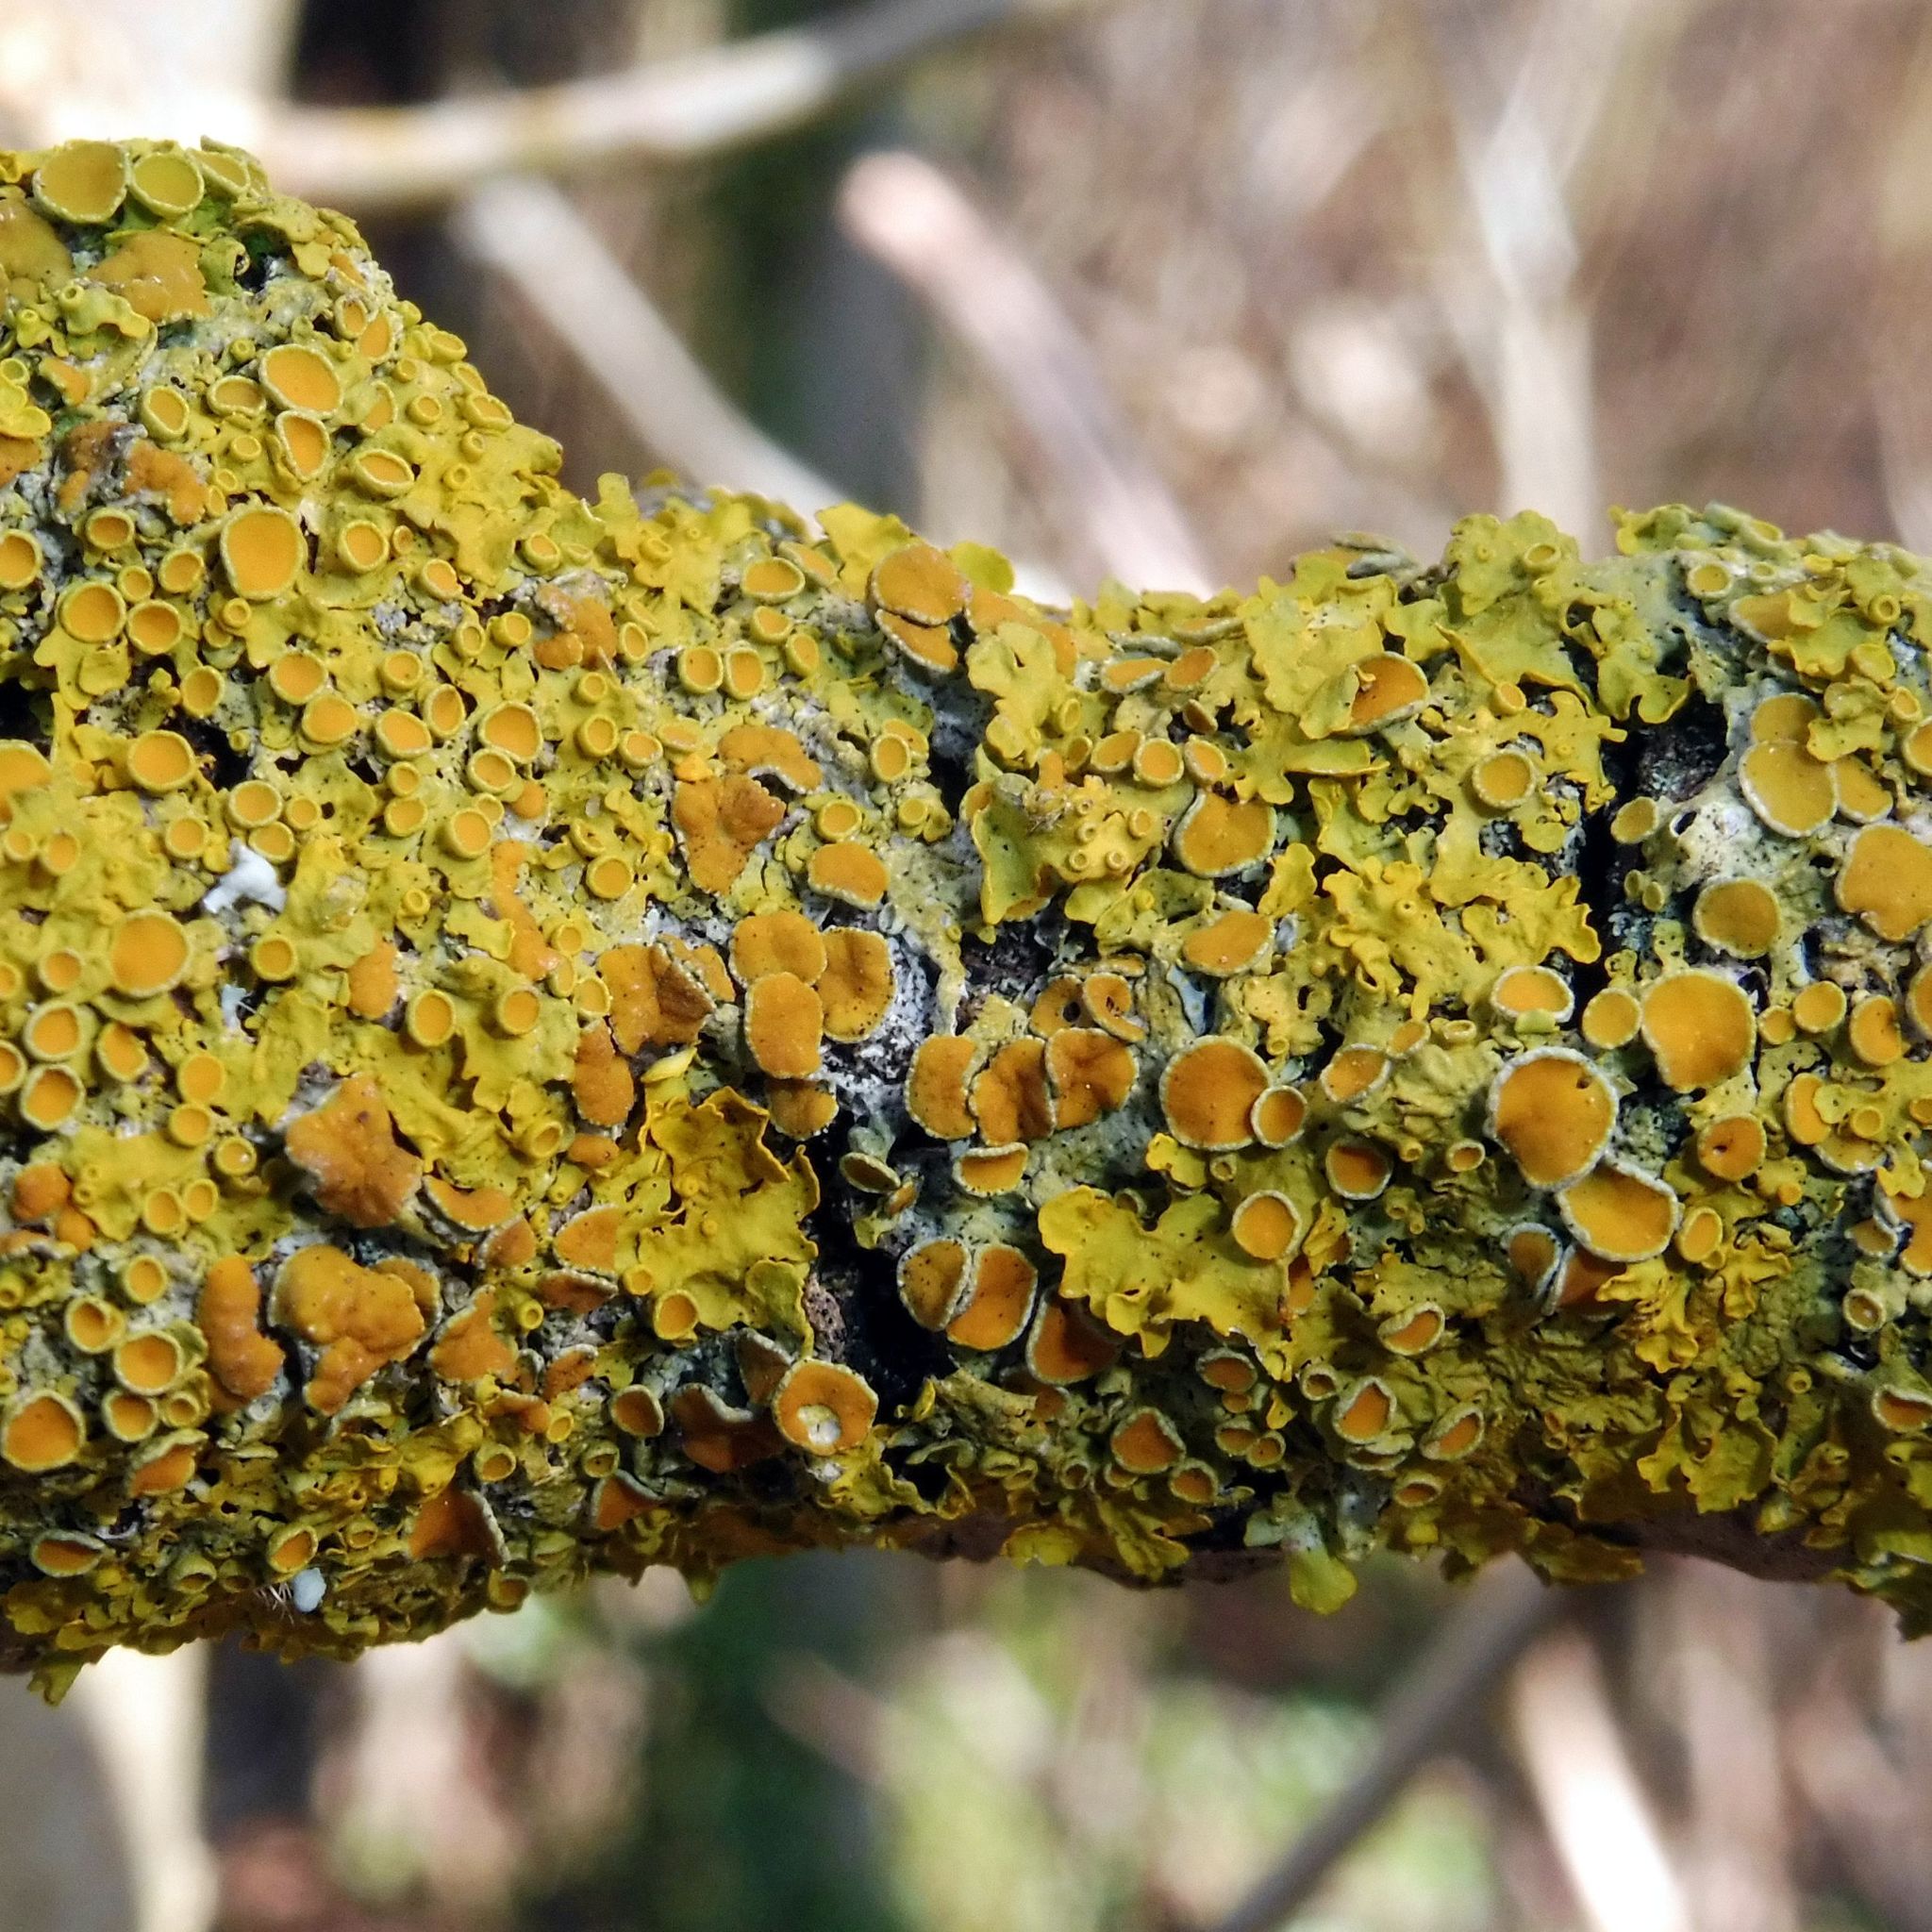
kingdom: Fungi
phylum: Ascomycota
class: Lecanoromycetes
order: Teloschistales
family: Teloschistaceae
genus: Xanthoria
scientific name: Xanthoria parietina
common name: Common orange lichen
